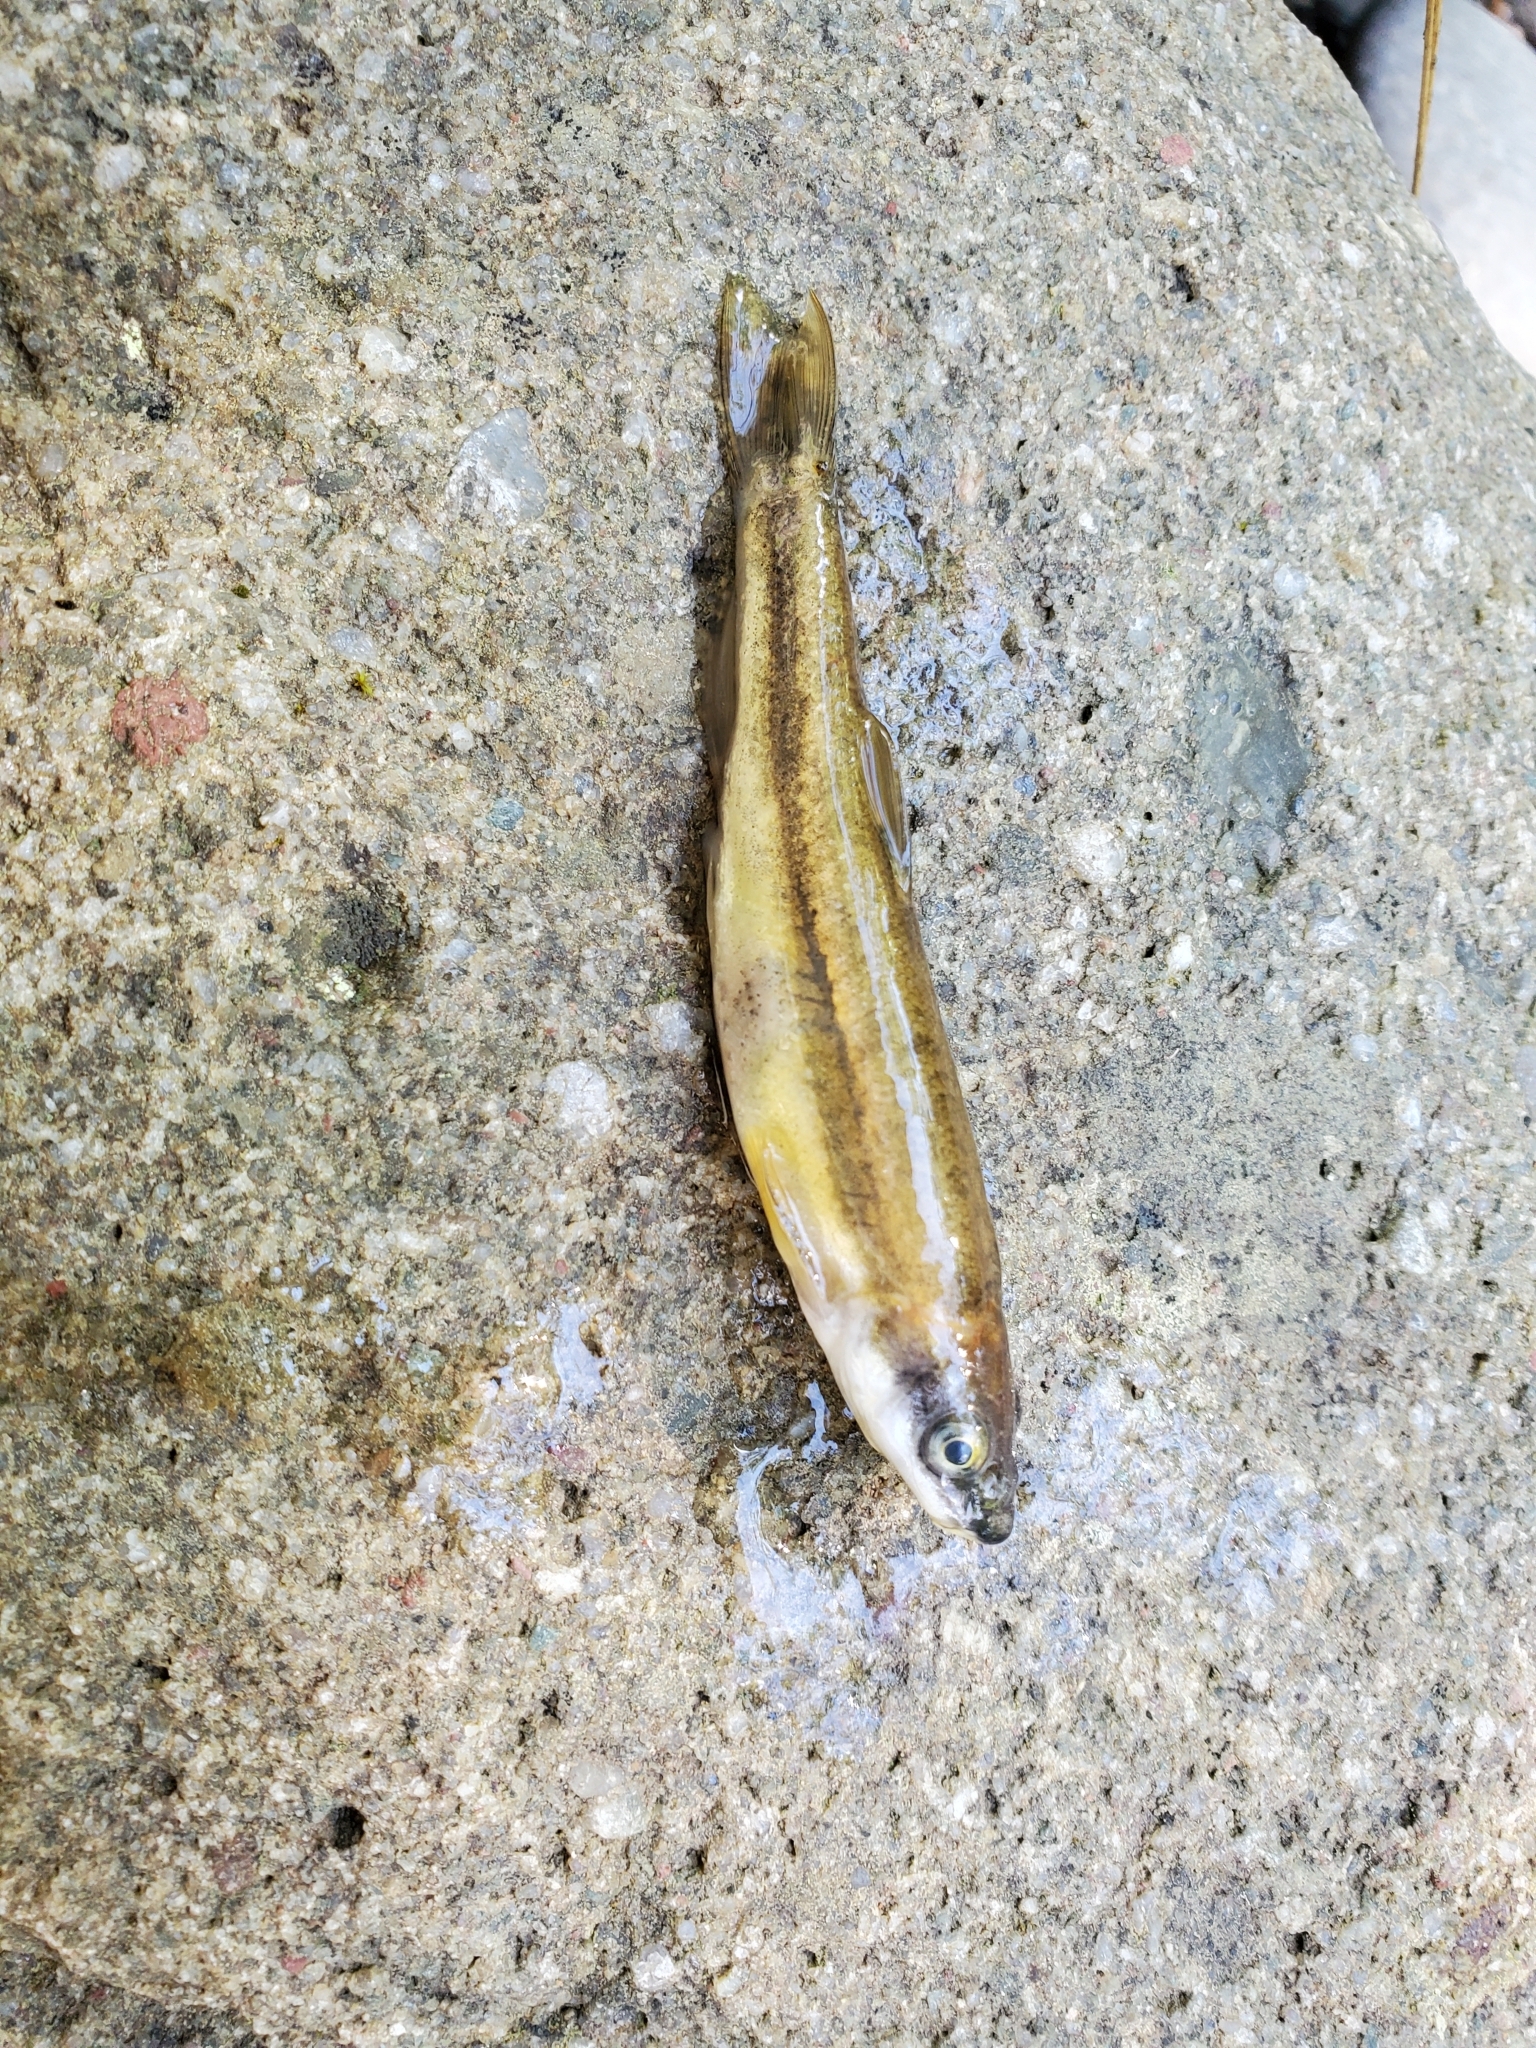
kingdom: Animalia
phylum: Chordata
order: Cypriniformes
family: Cyprinidae
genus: Rhinichthys
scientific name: Rhinichthys atratulus
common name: Eastern blacknose dace
